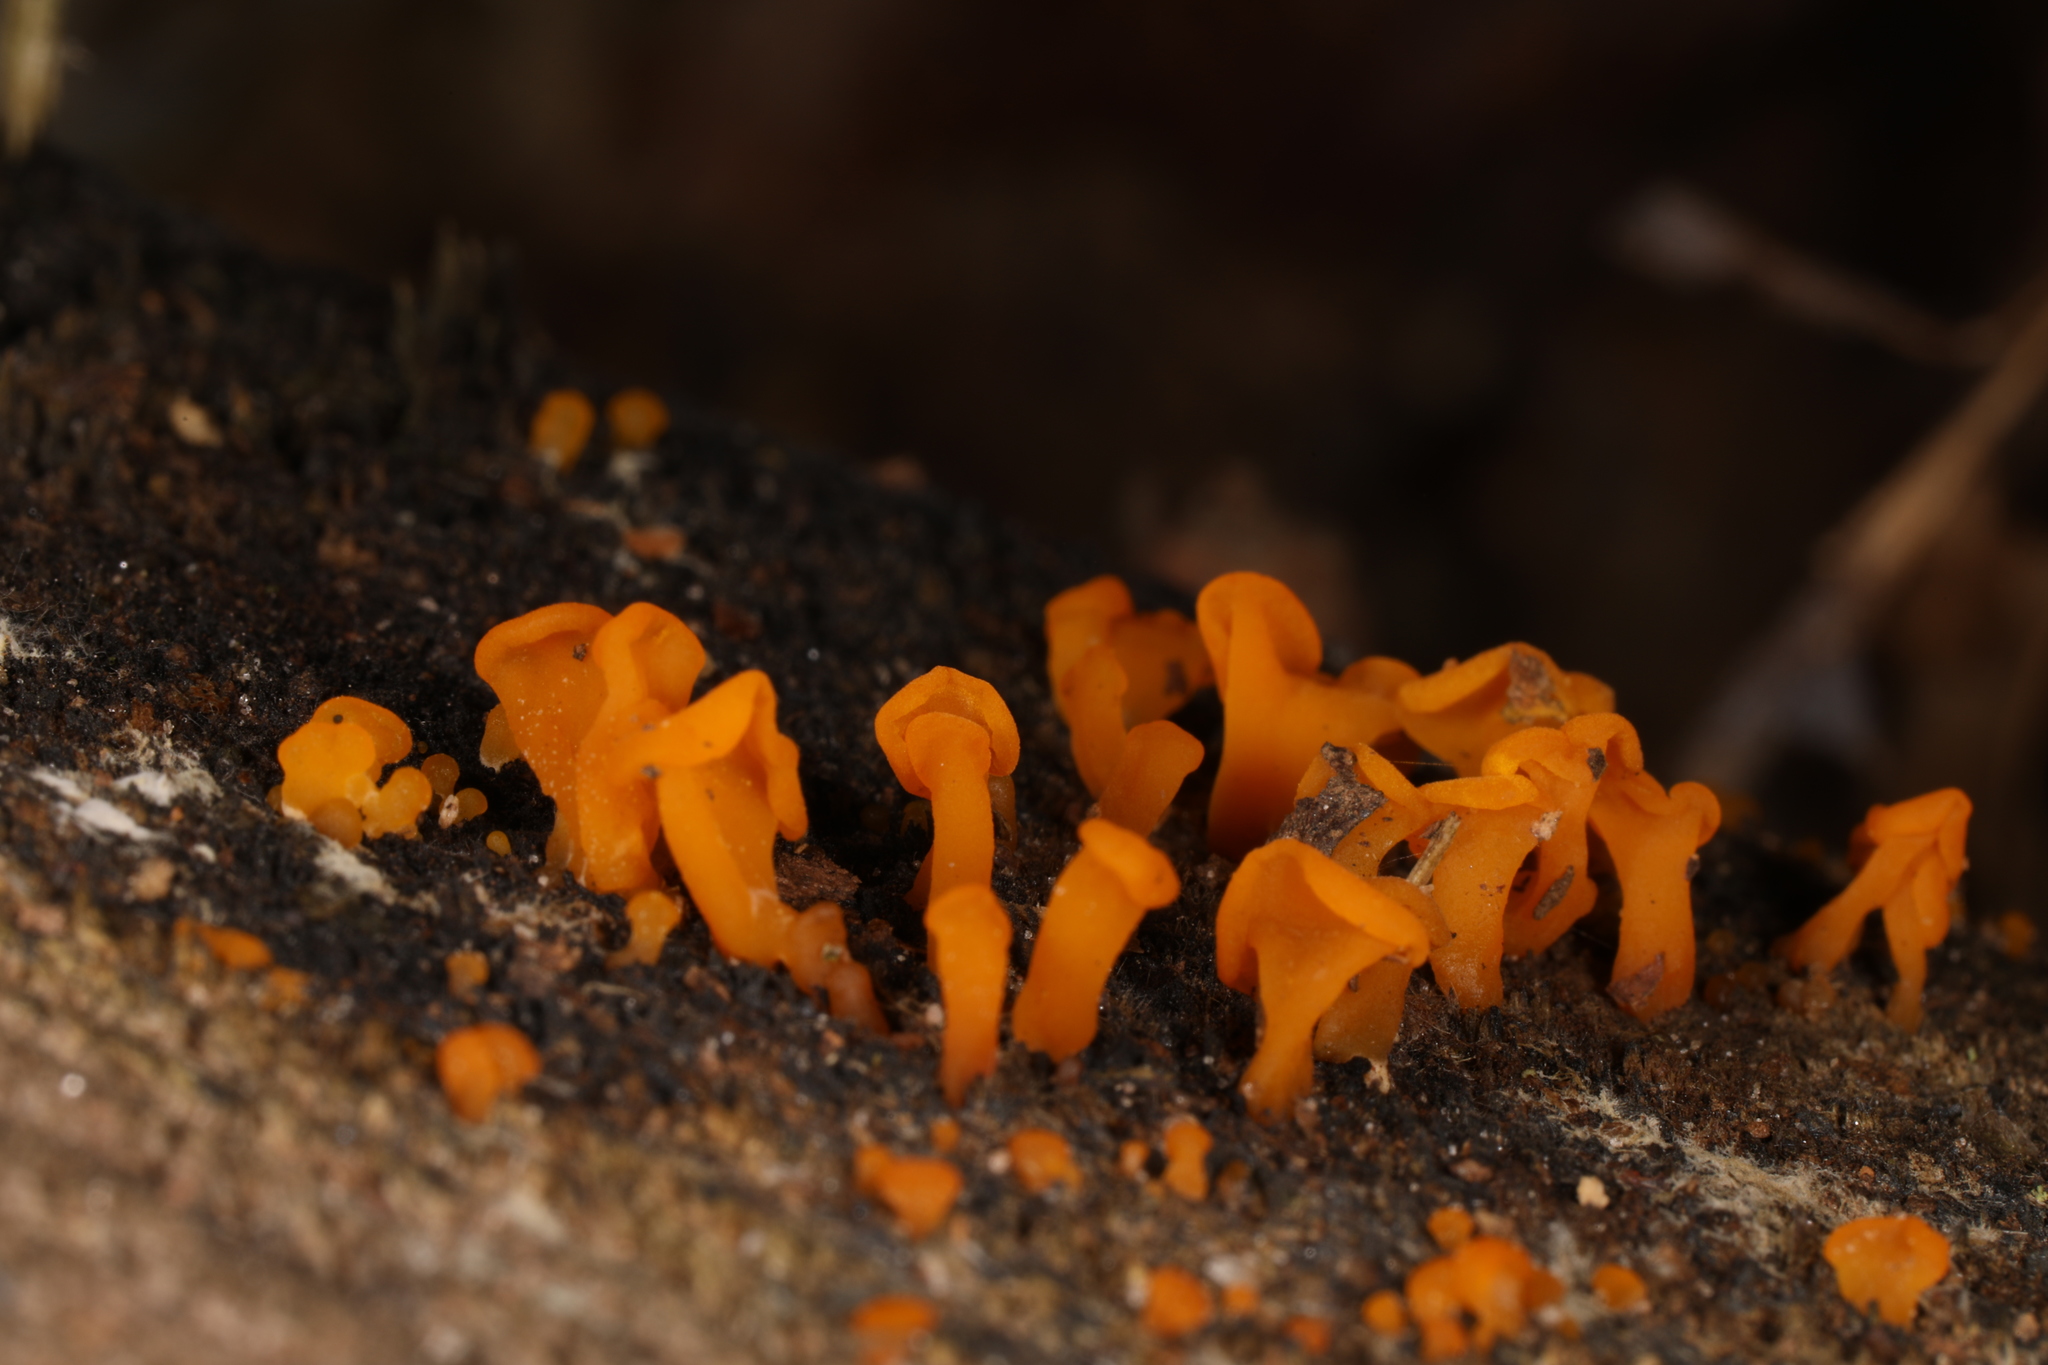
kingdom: Fungi
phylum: Basidiomycota
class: Dacrymycetes
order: Dacrymycetales
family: Dacrymycetaceae
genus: Dacrymyces
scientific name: Dacrymyces spathularius
